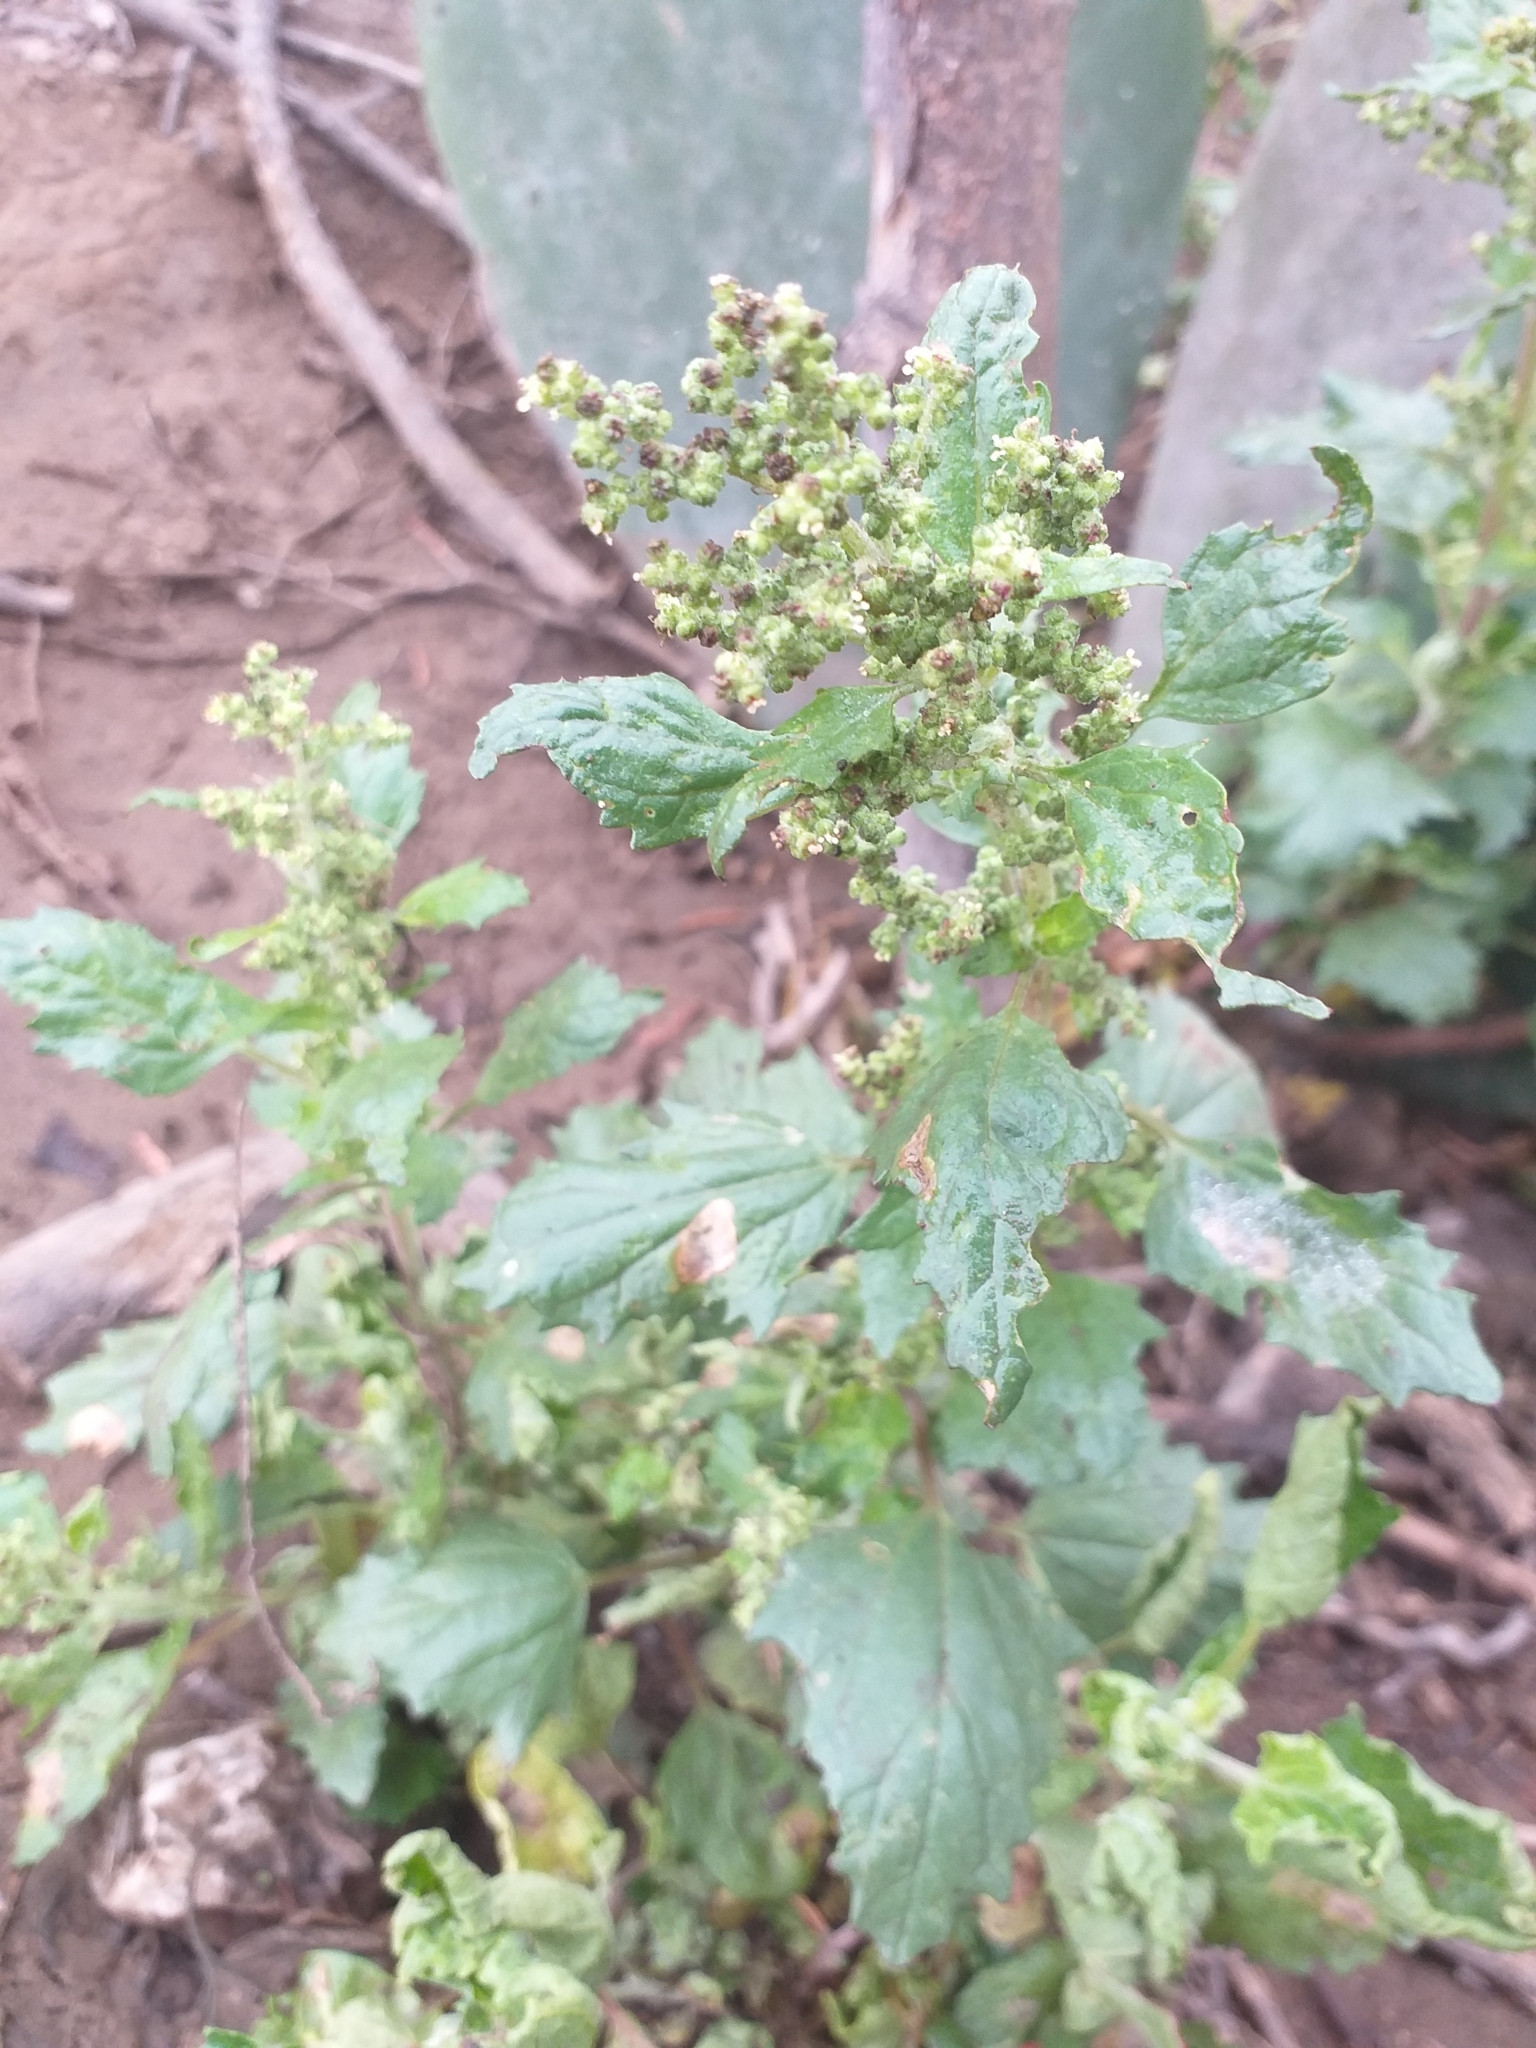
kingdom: Plantae
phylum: Tracheophyta
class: Magnoliopsida
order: Caryophyllales
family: Amaranthaceae
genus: Chenopodiastrum
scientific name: Chenopodiastrum murale
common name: Sowbane
